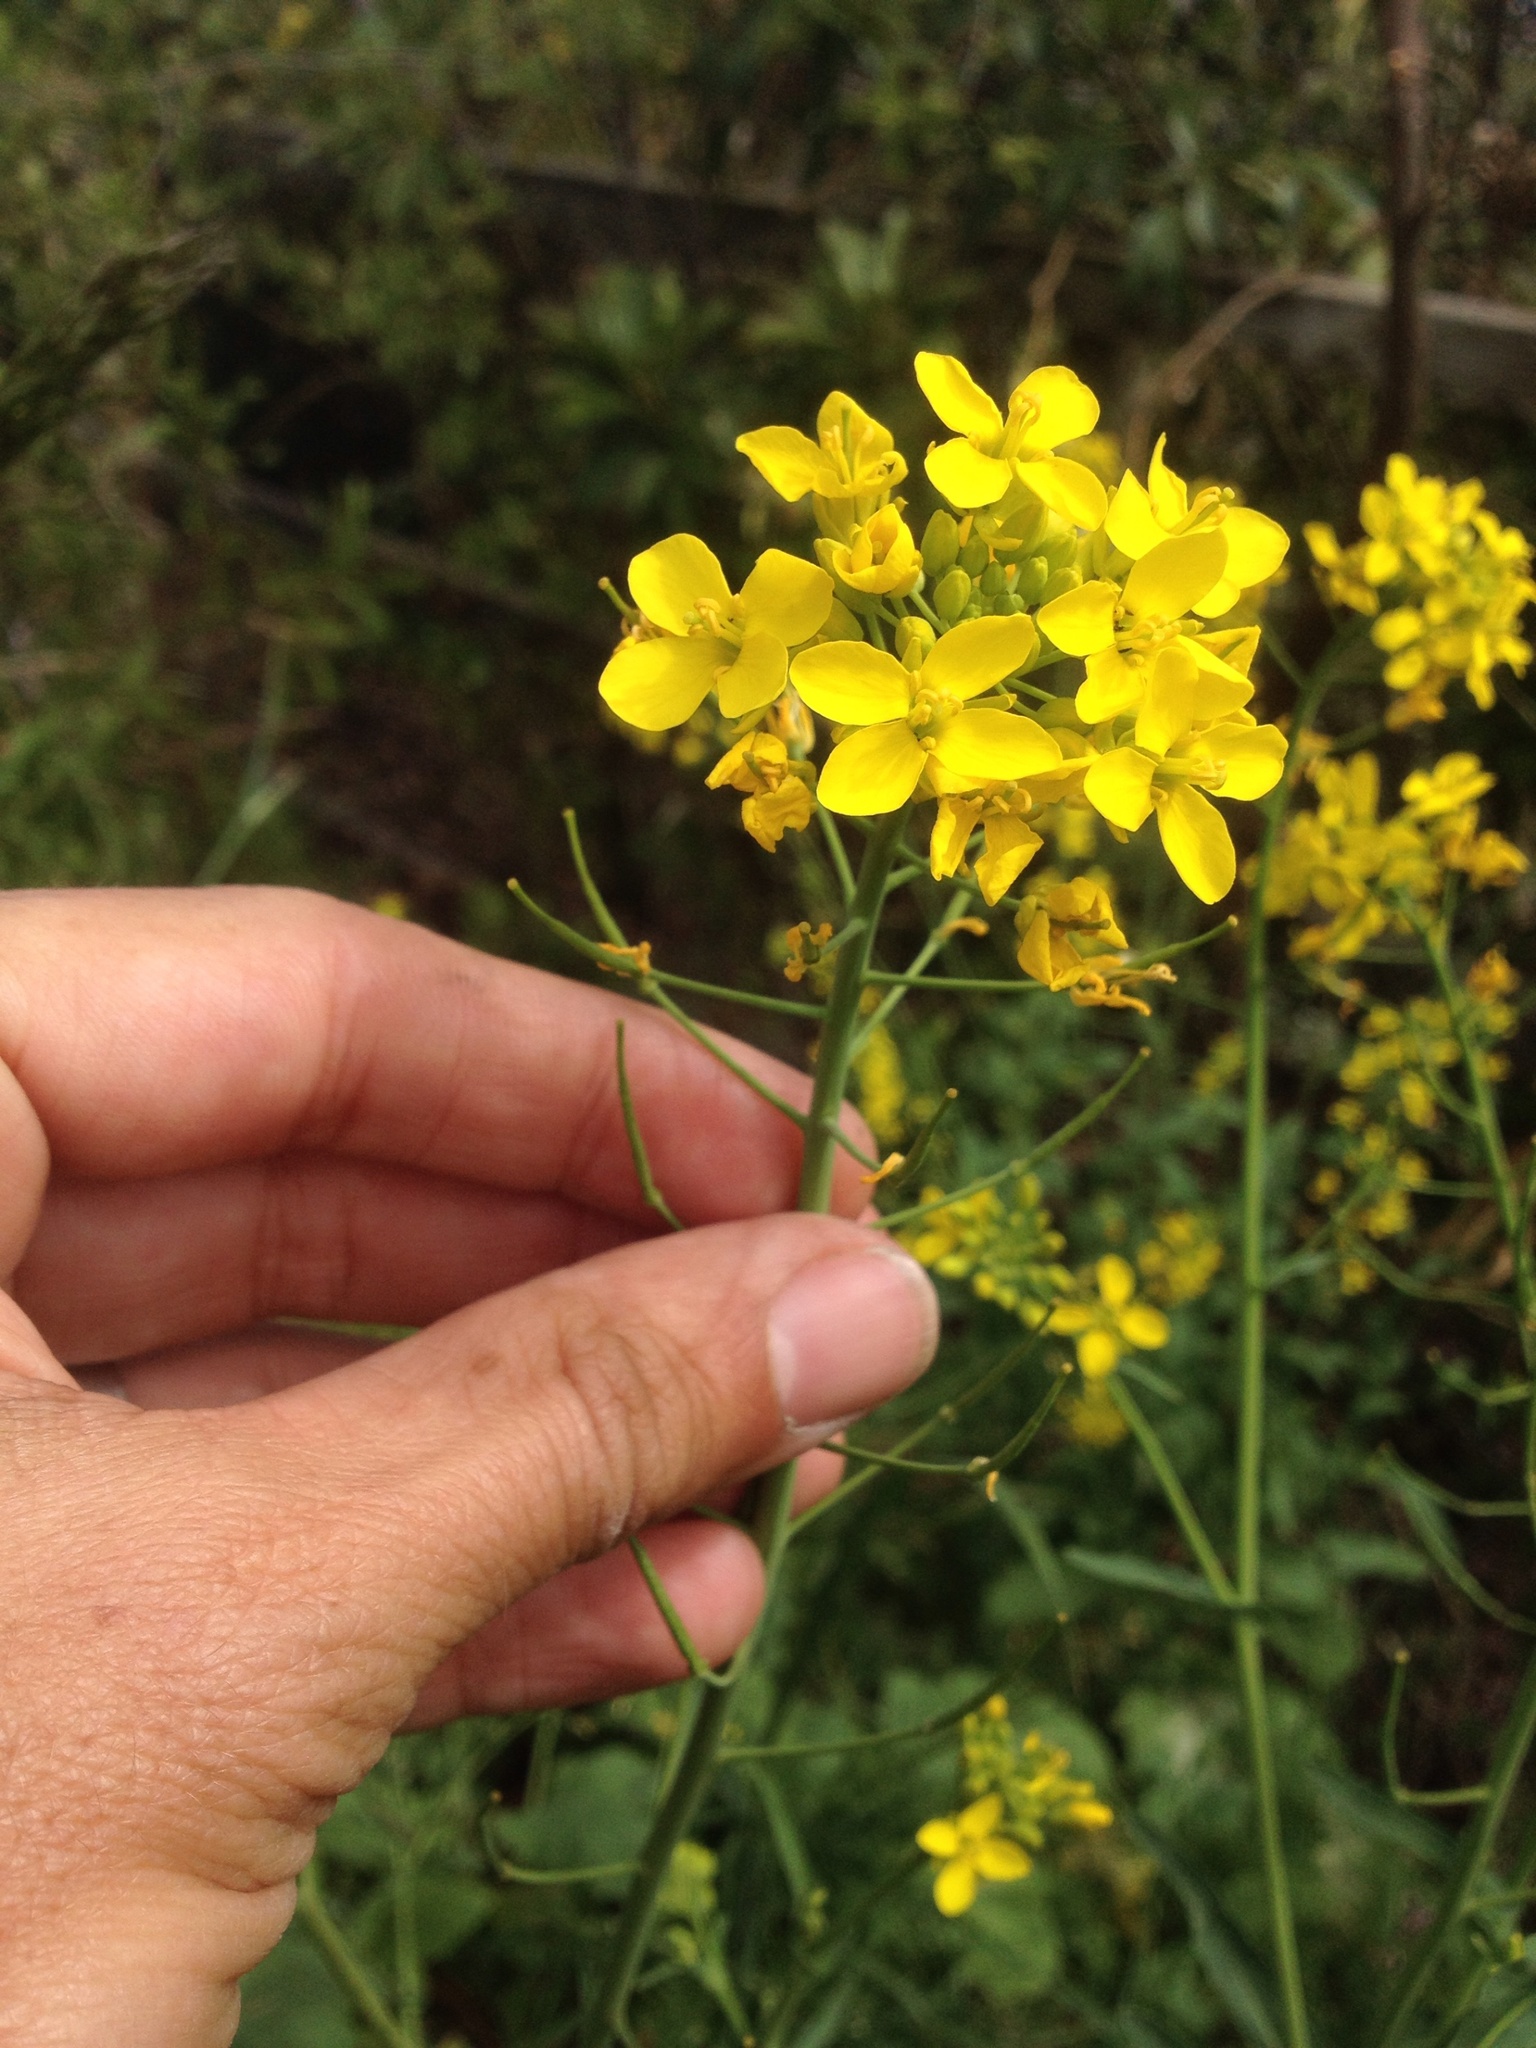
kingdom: Plantae
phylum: Tracheophyta
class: Magnoliopsida
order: Brassicales
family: Brassicaceae
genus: Brassica
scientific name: Brassica rapa
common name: Field mustard
